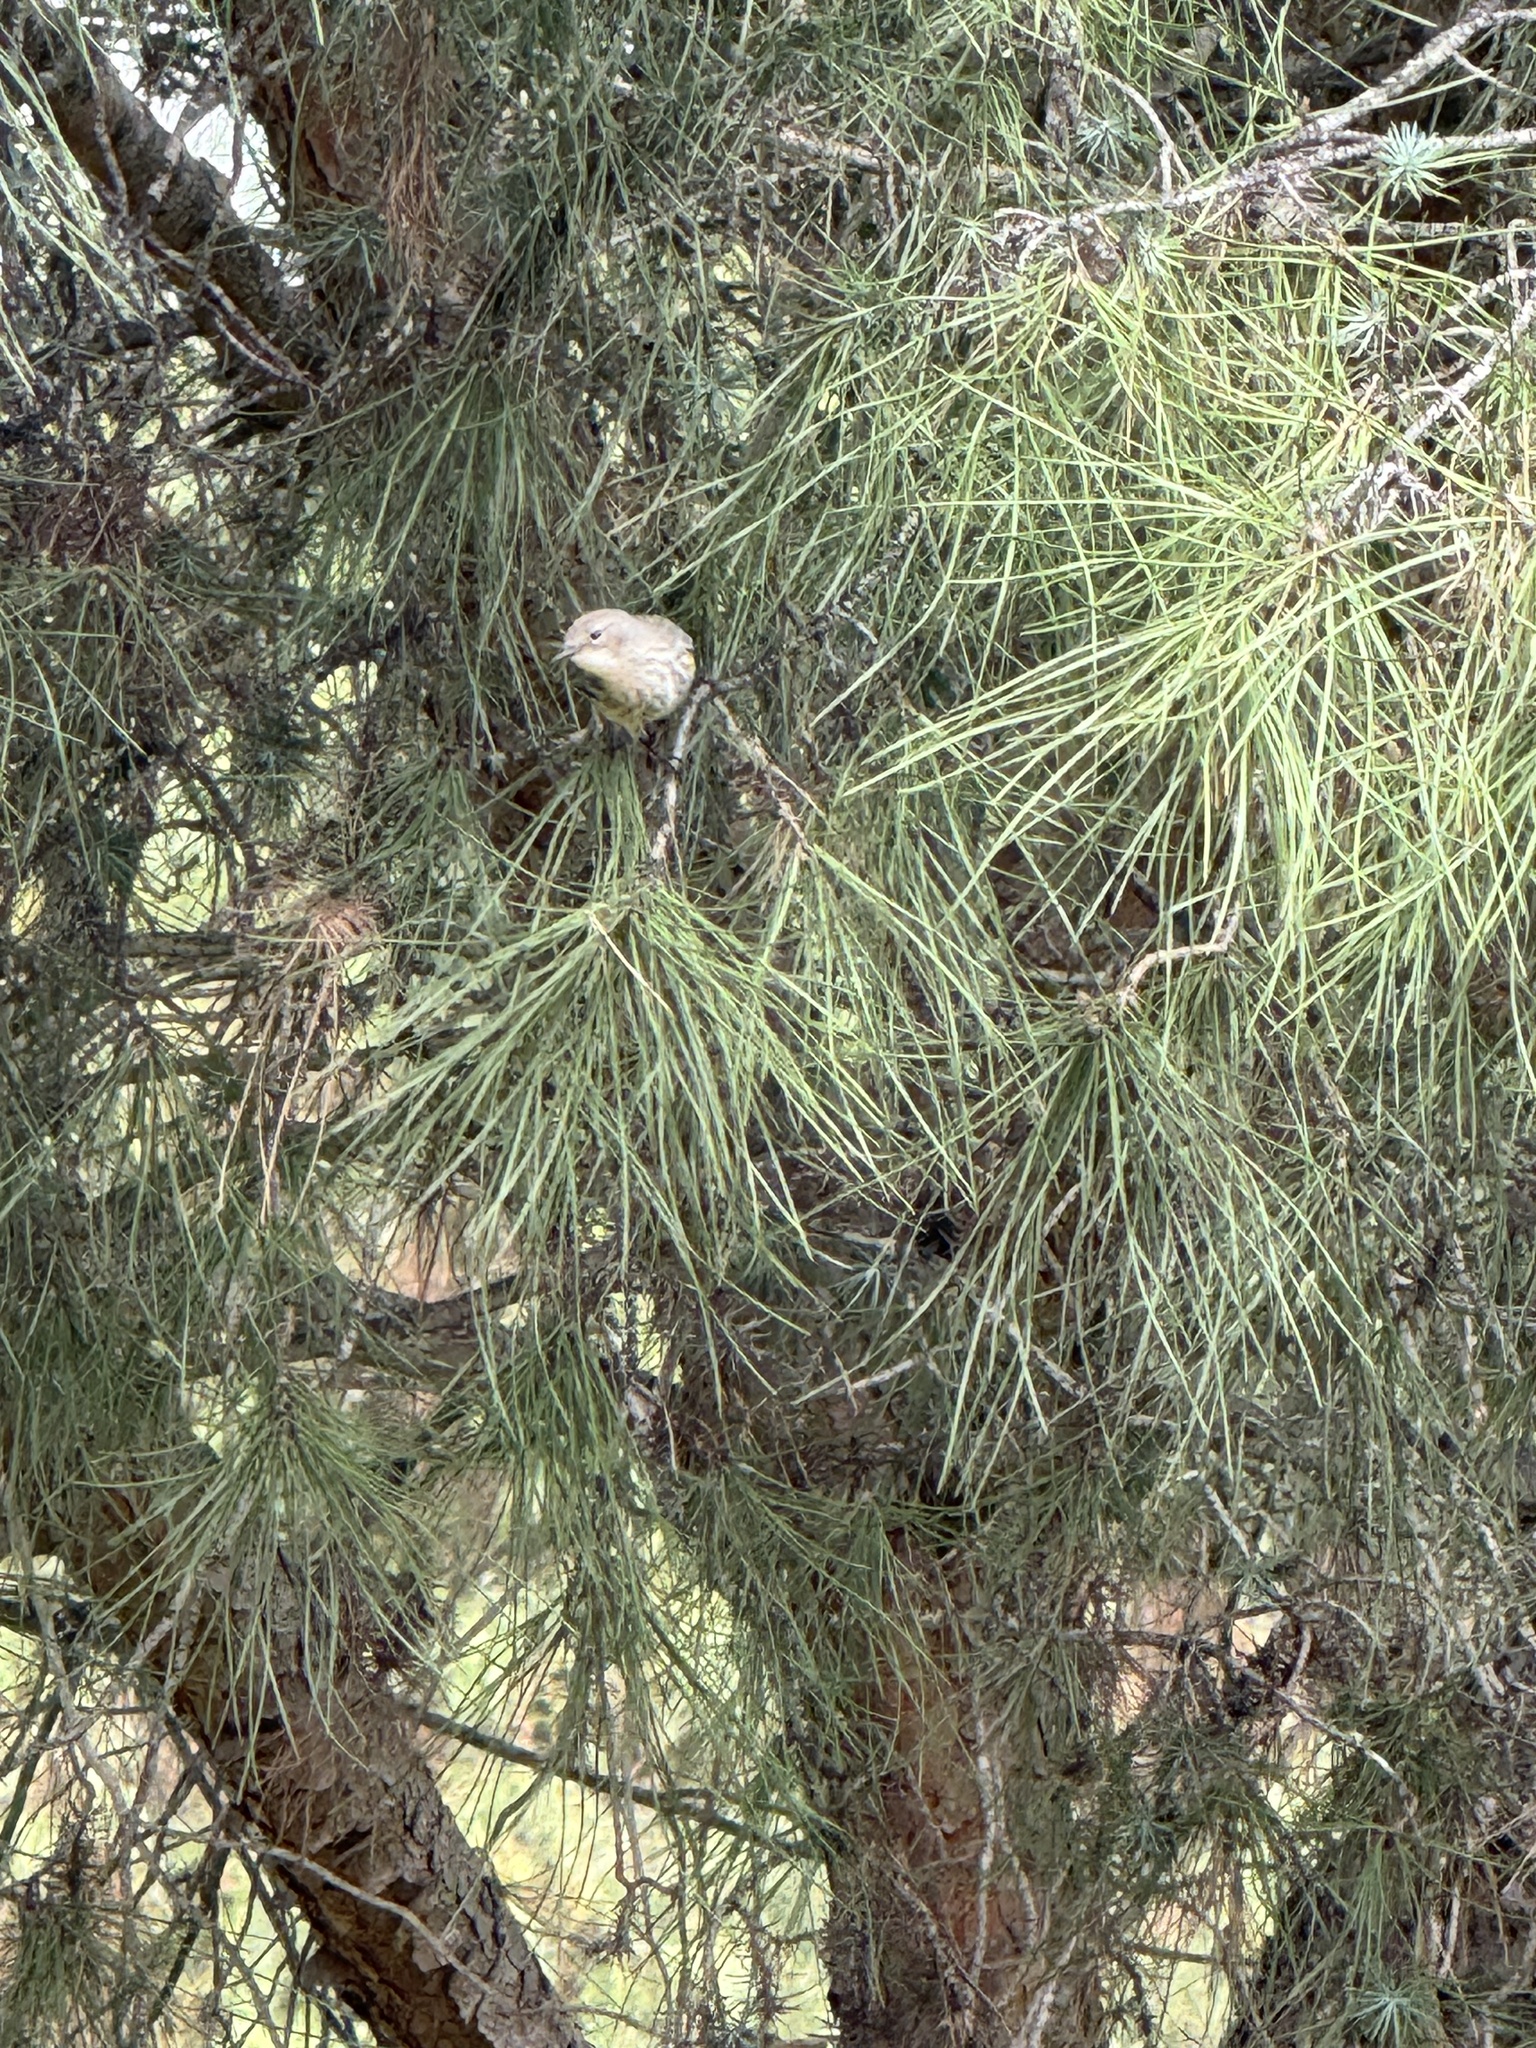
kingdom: Animalia
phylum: Chordata
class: Aves
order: Passeriformes
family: Parulidae
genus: Setophaga
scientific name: Setophaga coronata
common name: Myrtle warbler
